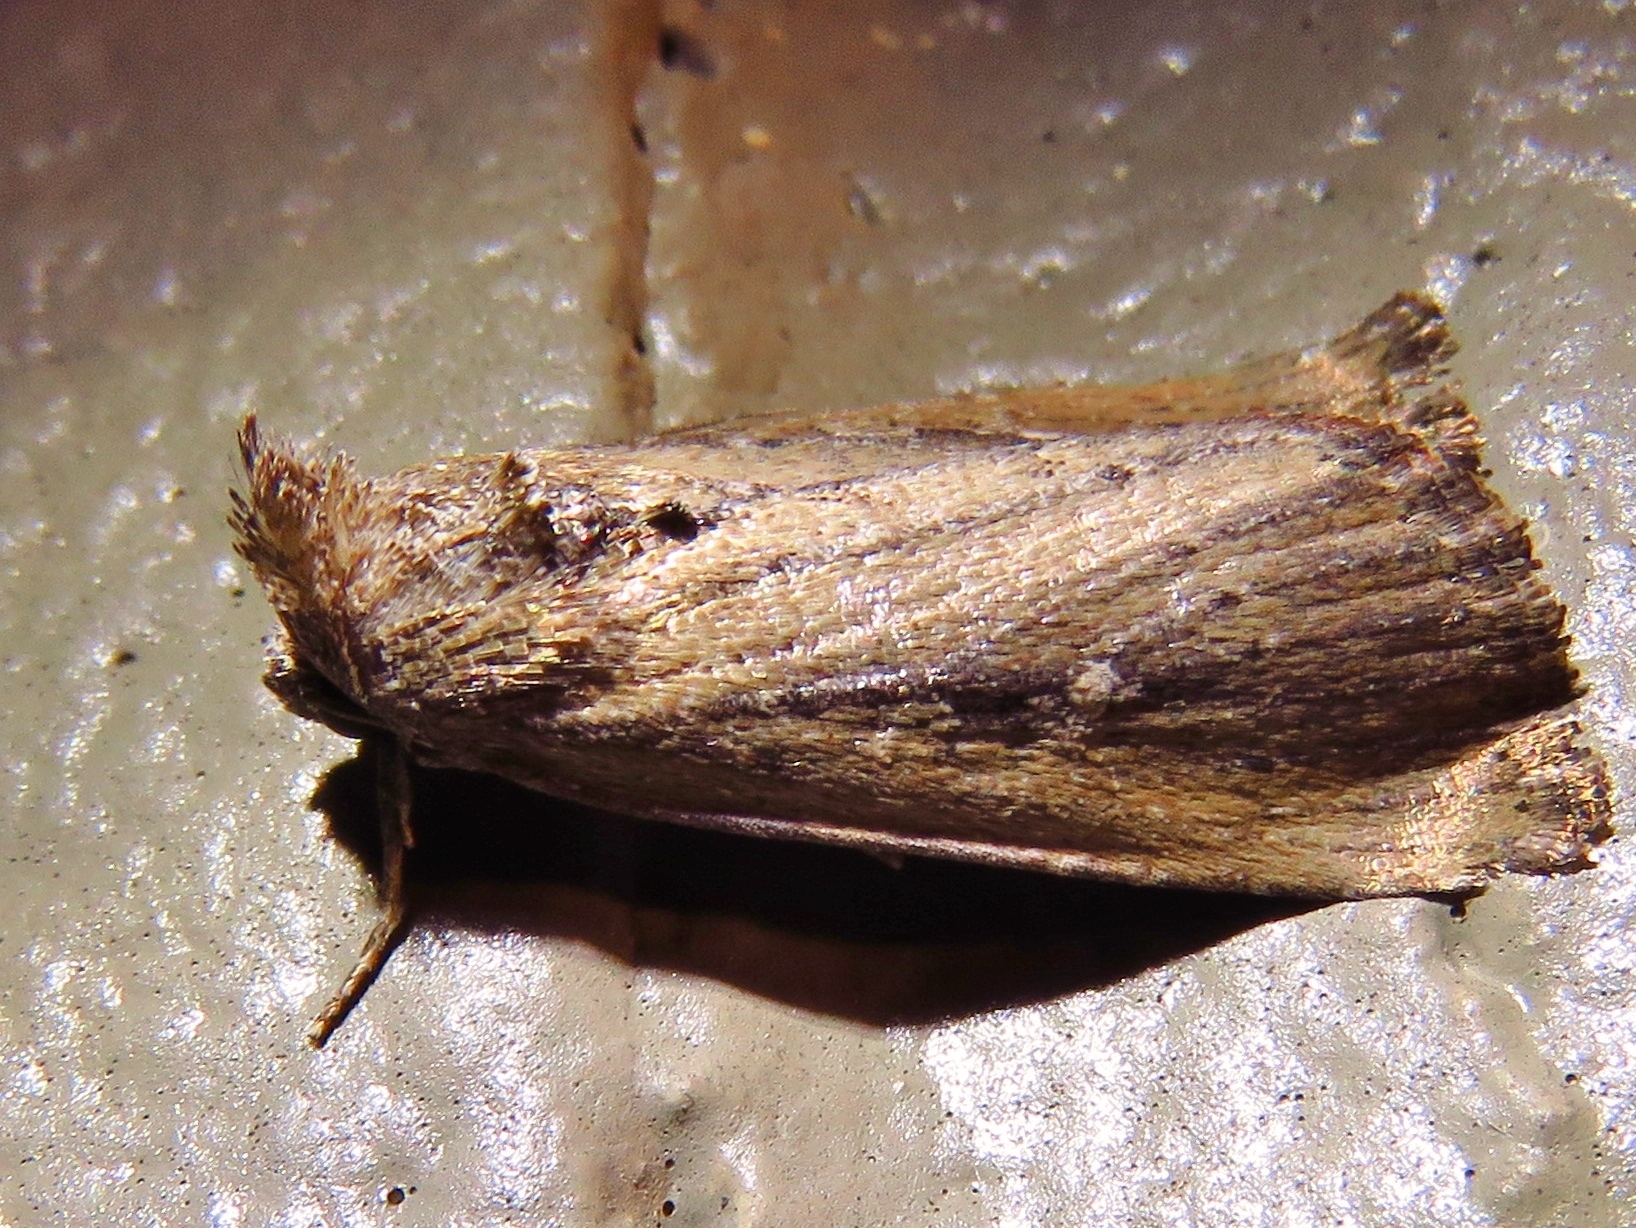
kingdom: Animalia
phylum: Arthropoda
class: Insecta
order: Lepidoptera
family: Noctuidae
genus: Condica
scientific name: Condica videns
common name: White-dotted groundling
